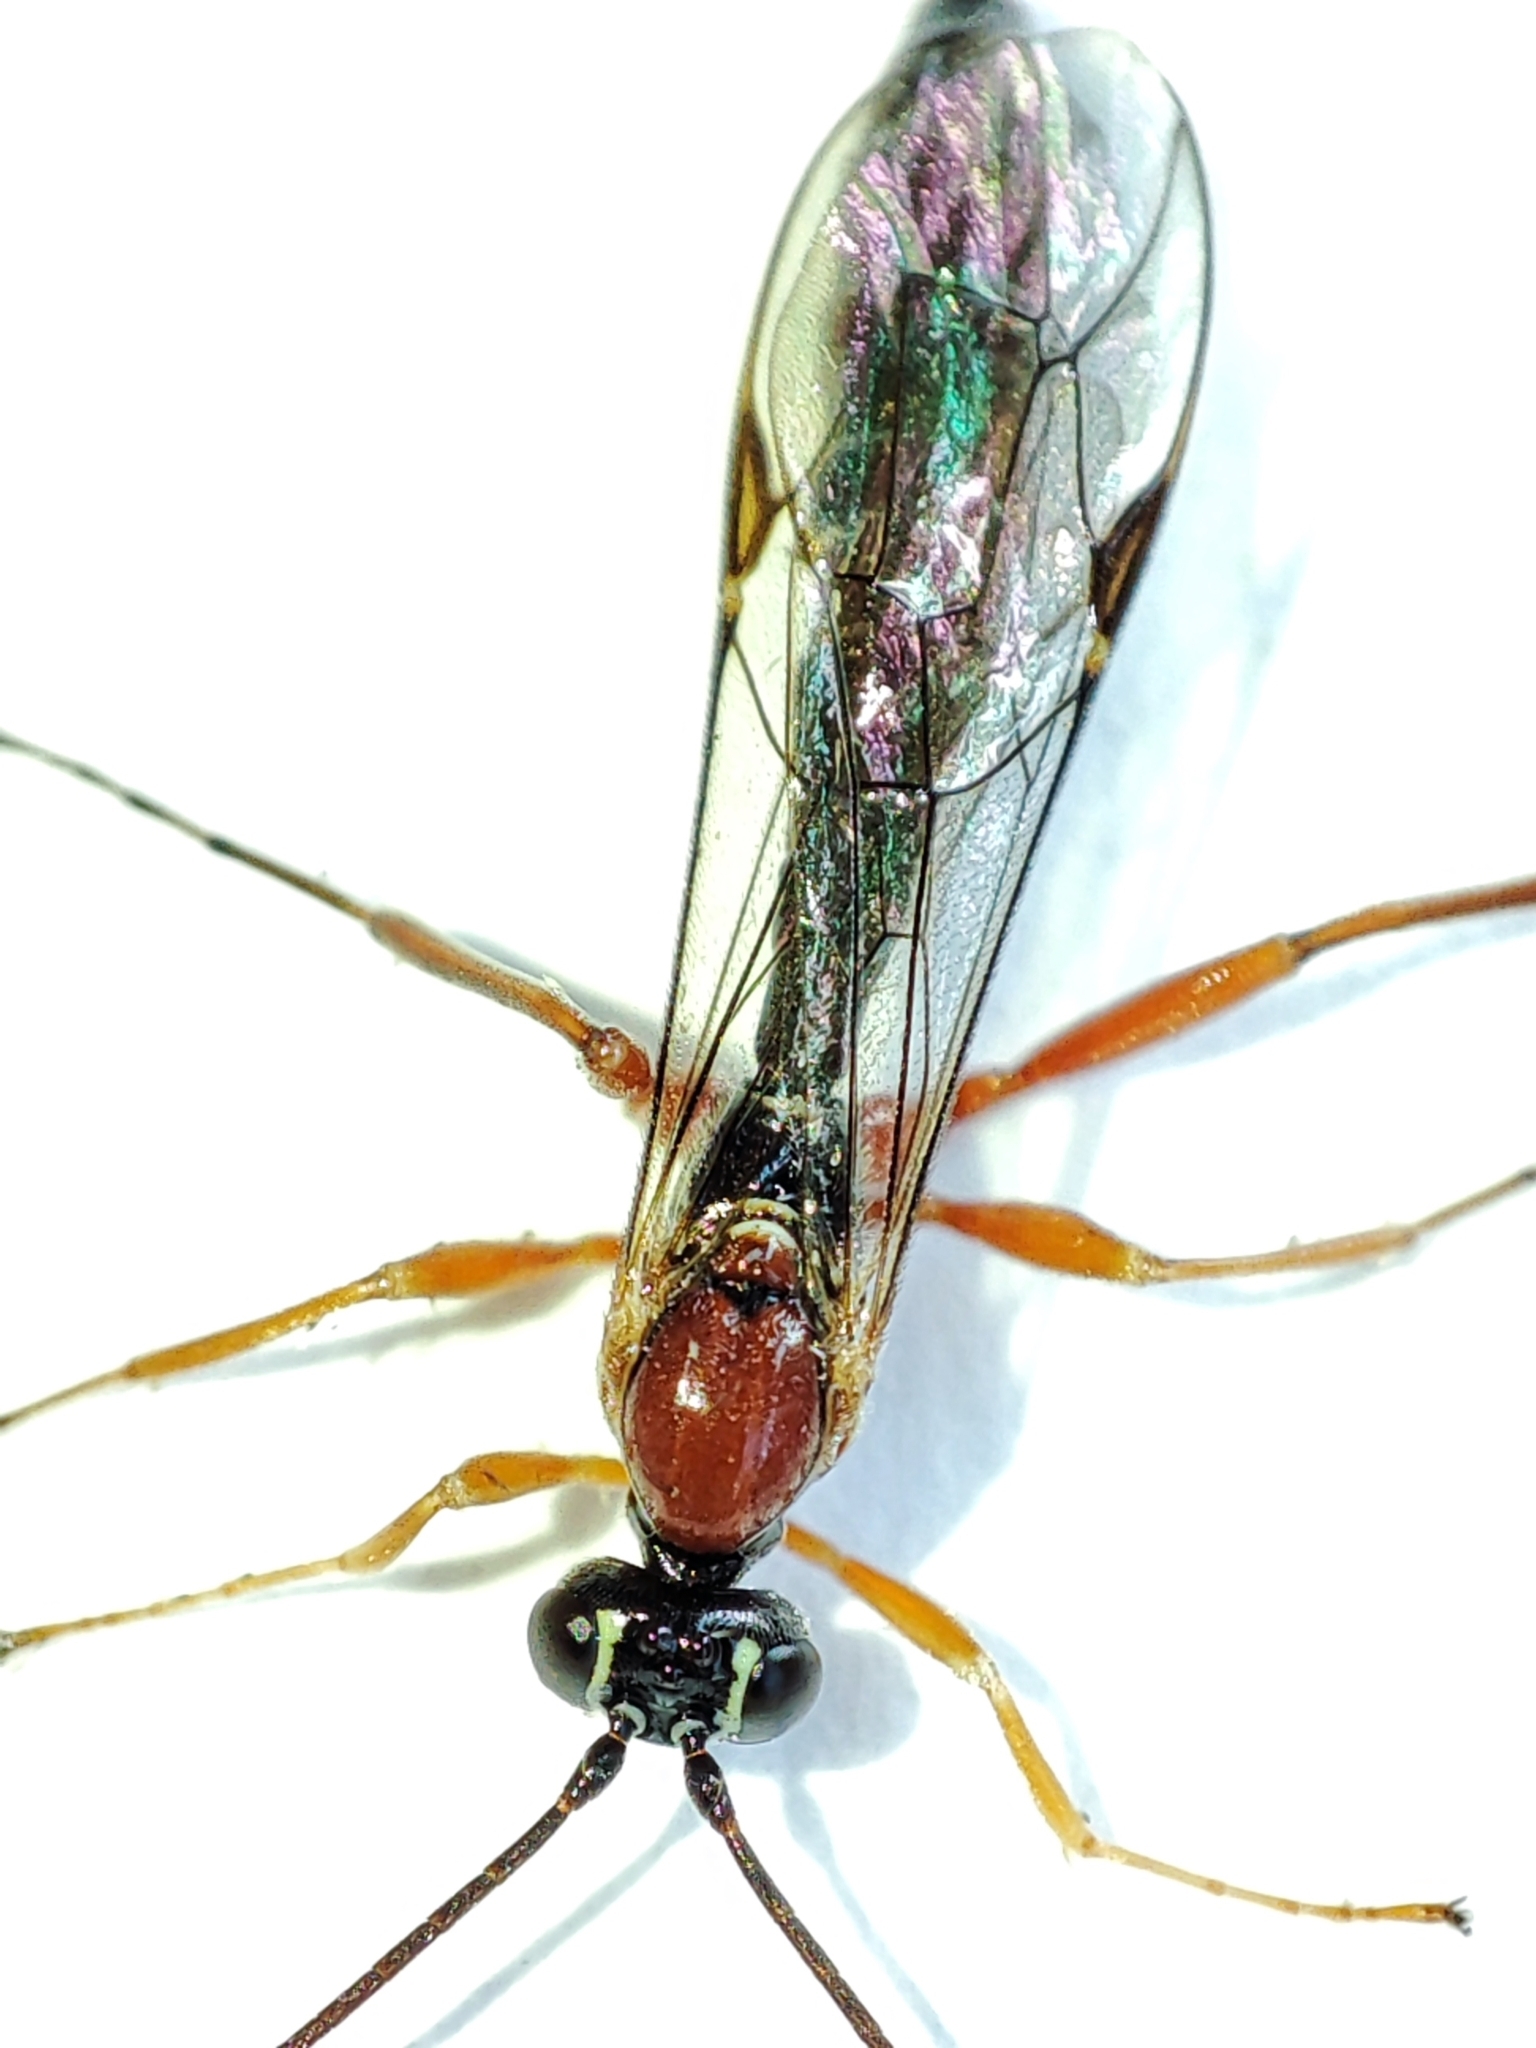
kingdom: Animalia
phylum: Arthropoda
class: Insecta
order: Hymenoptera
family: Ichneumonidae
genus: Perithous
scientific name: Perithous scurra
